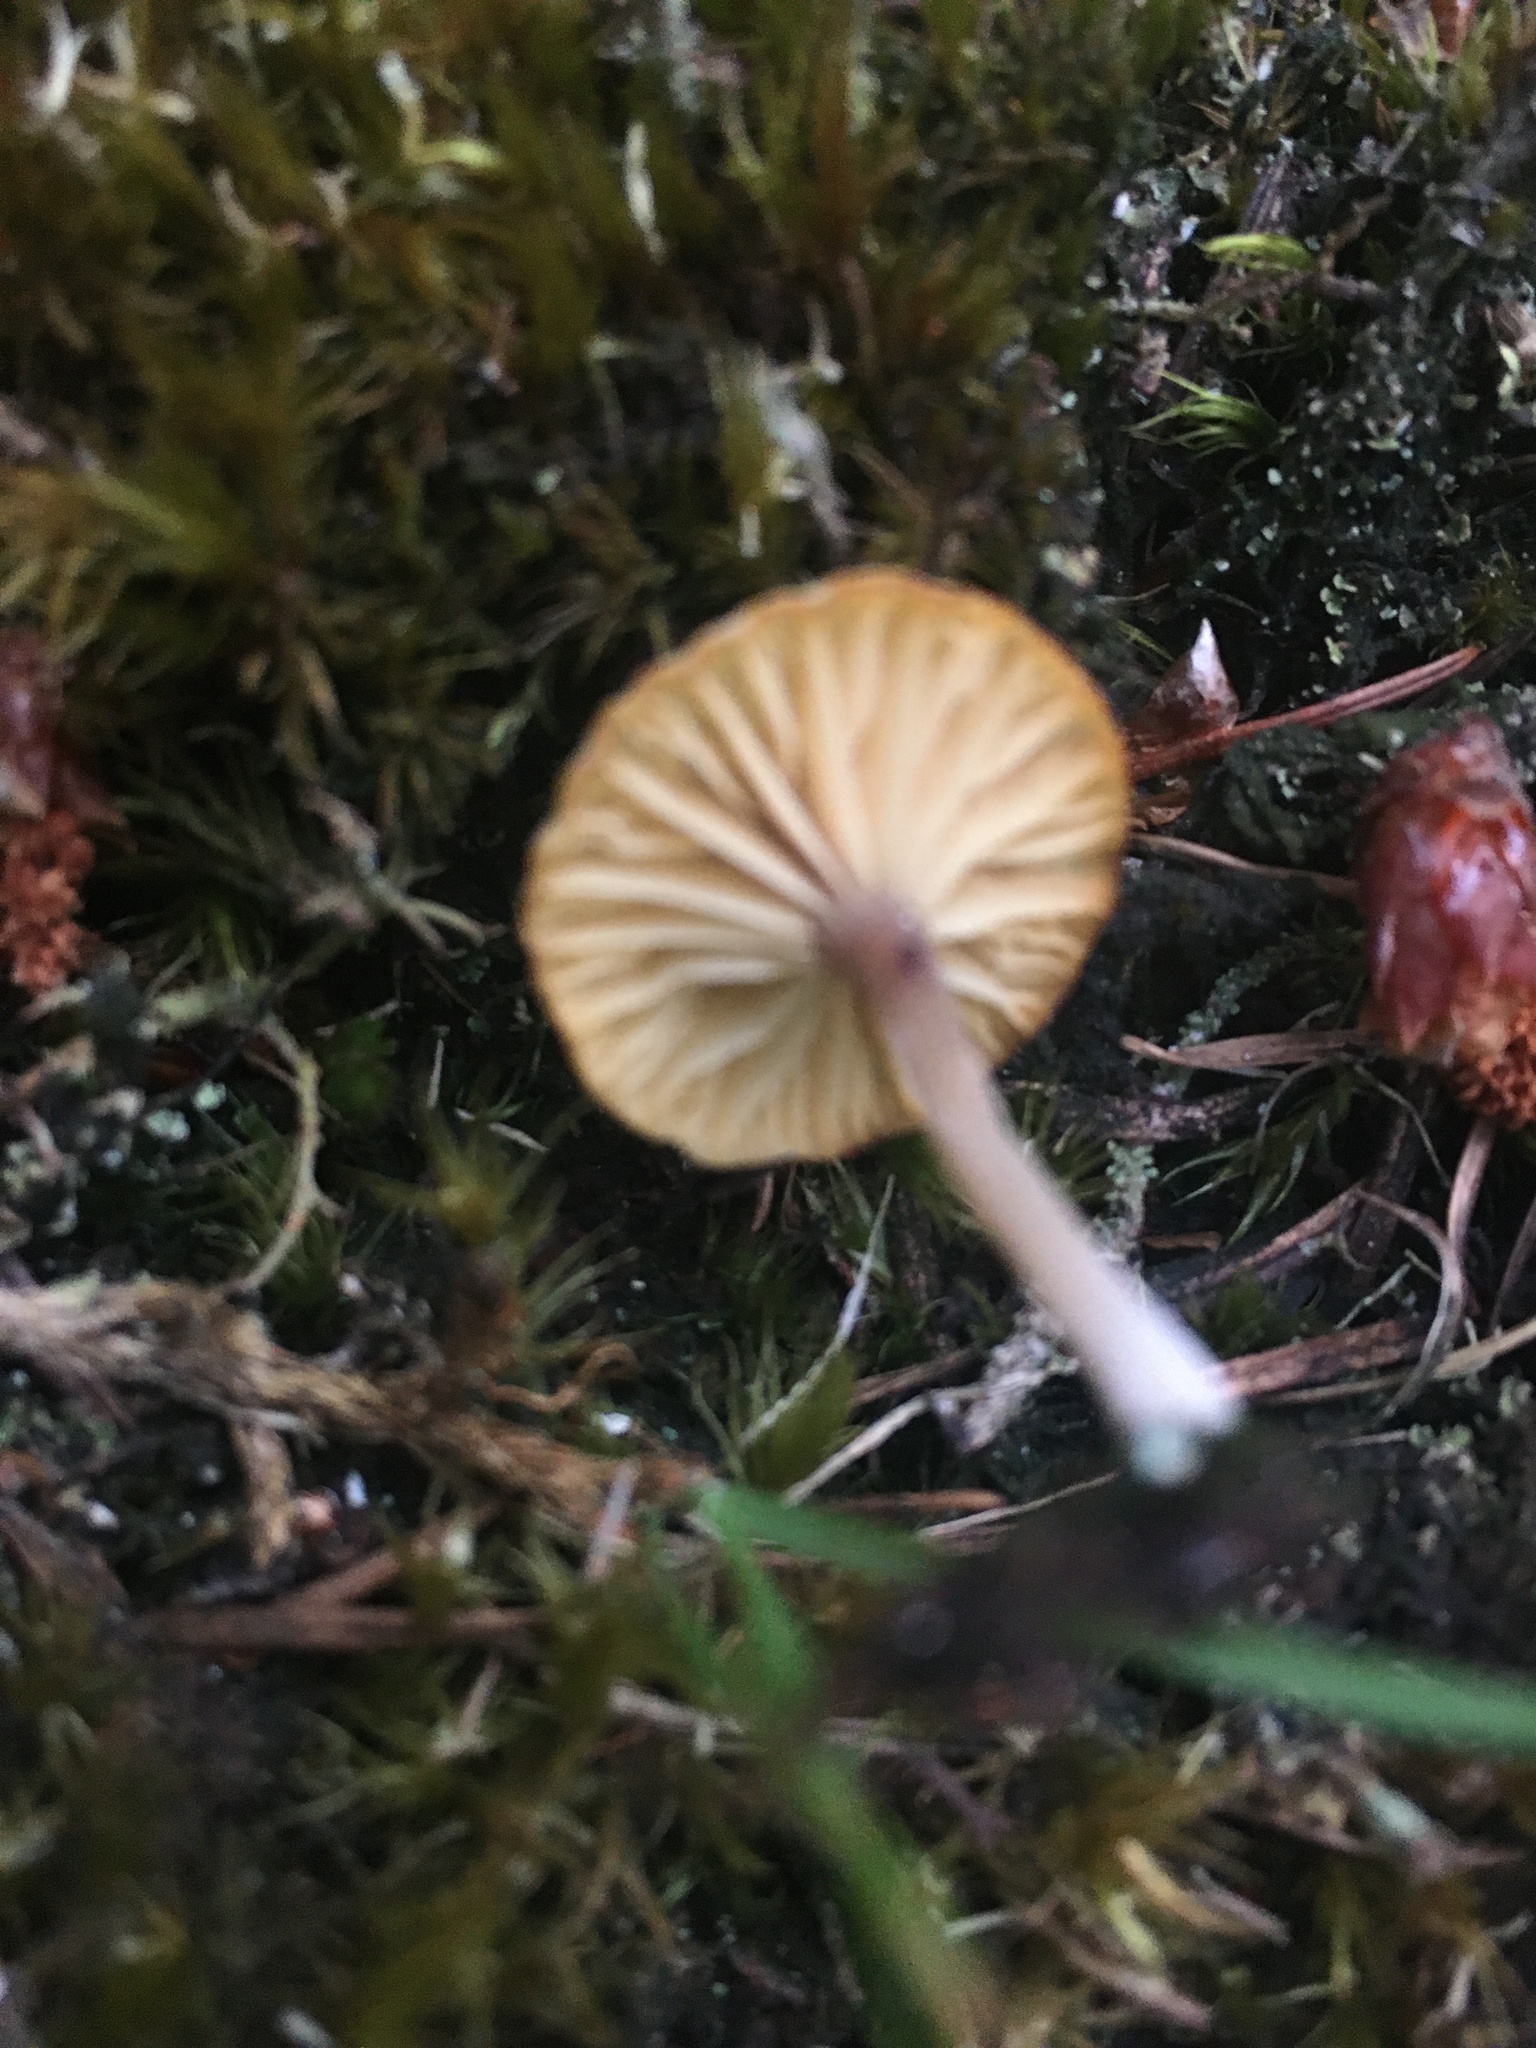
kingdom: Fungi
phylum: Basidiomycota
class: Agaricomycetes
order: Agaricales
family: Hygrophoraceae
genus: Lichenomphalia
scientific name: Lichenomphalia
